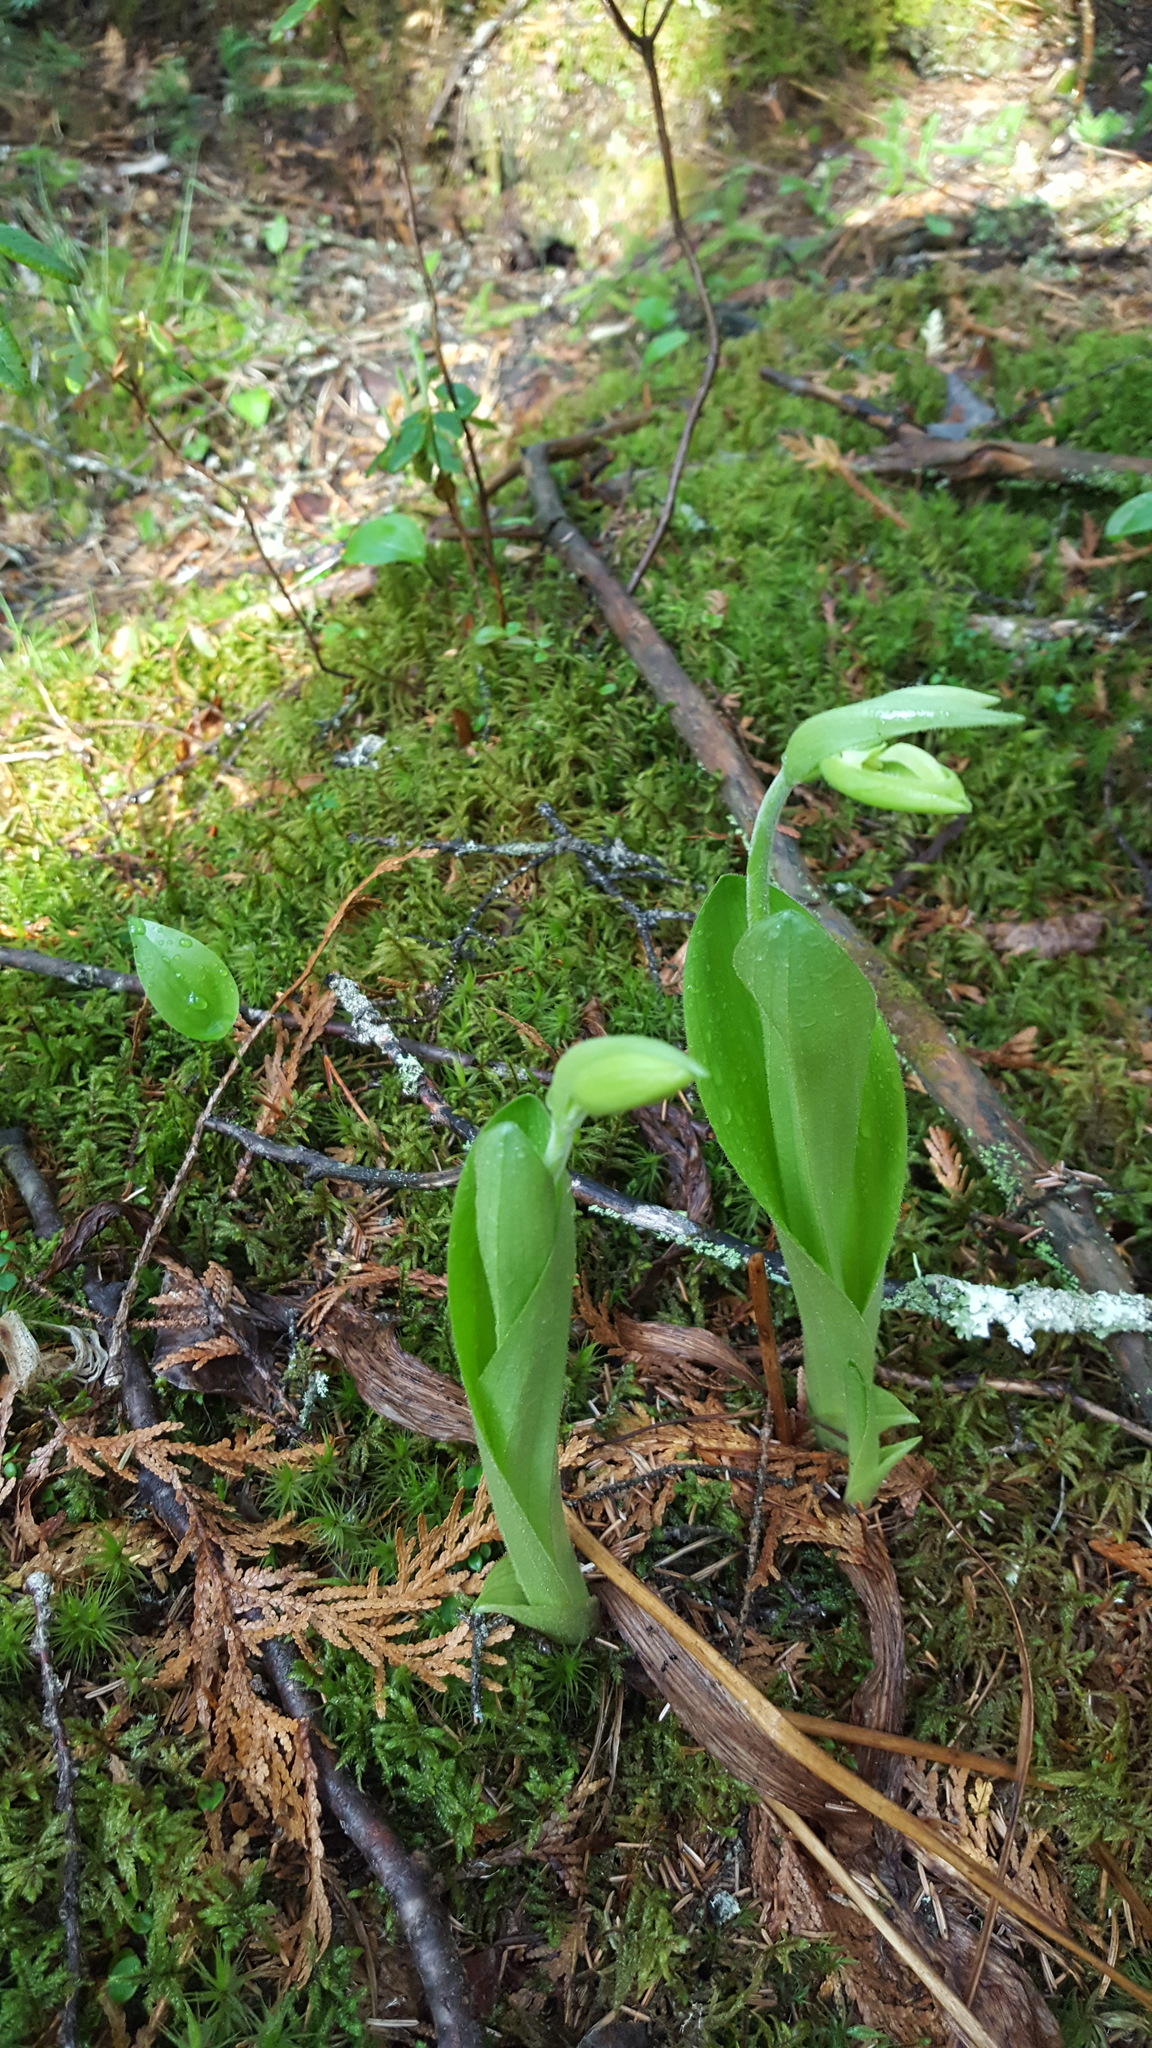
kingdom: Plantae
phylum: Tracheophyta
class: Liliopsida
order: Asparagales
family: Orchidaceae
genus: Cypripedium
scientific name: Cypripedium acaule
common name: Pink lady's-slipper
